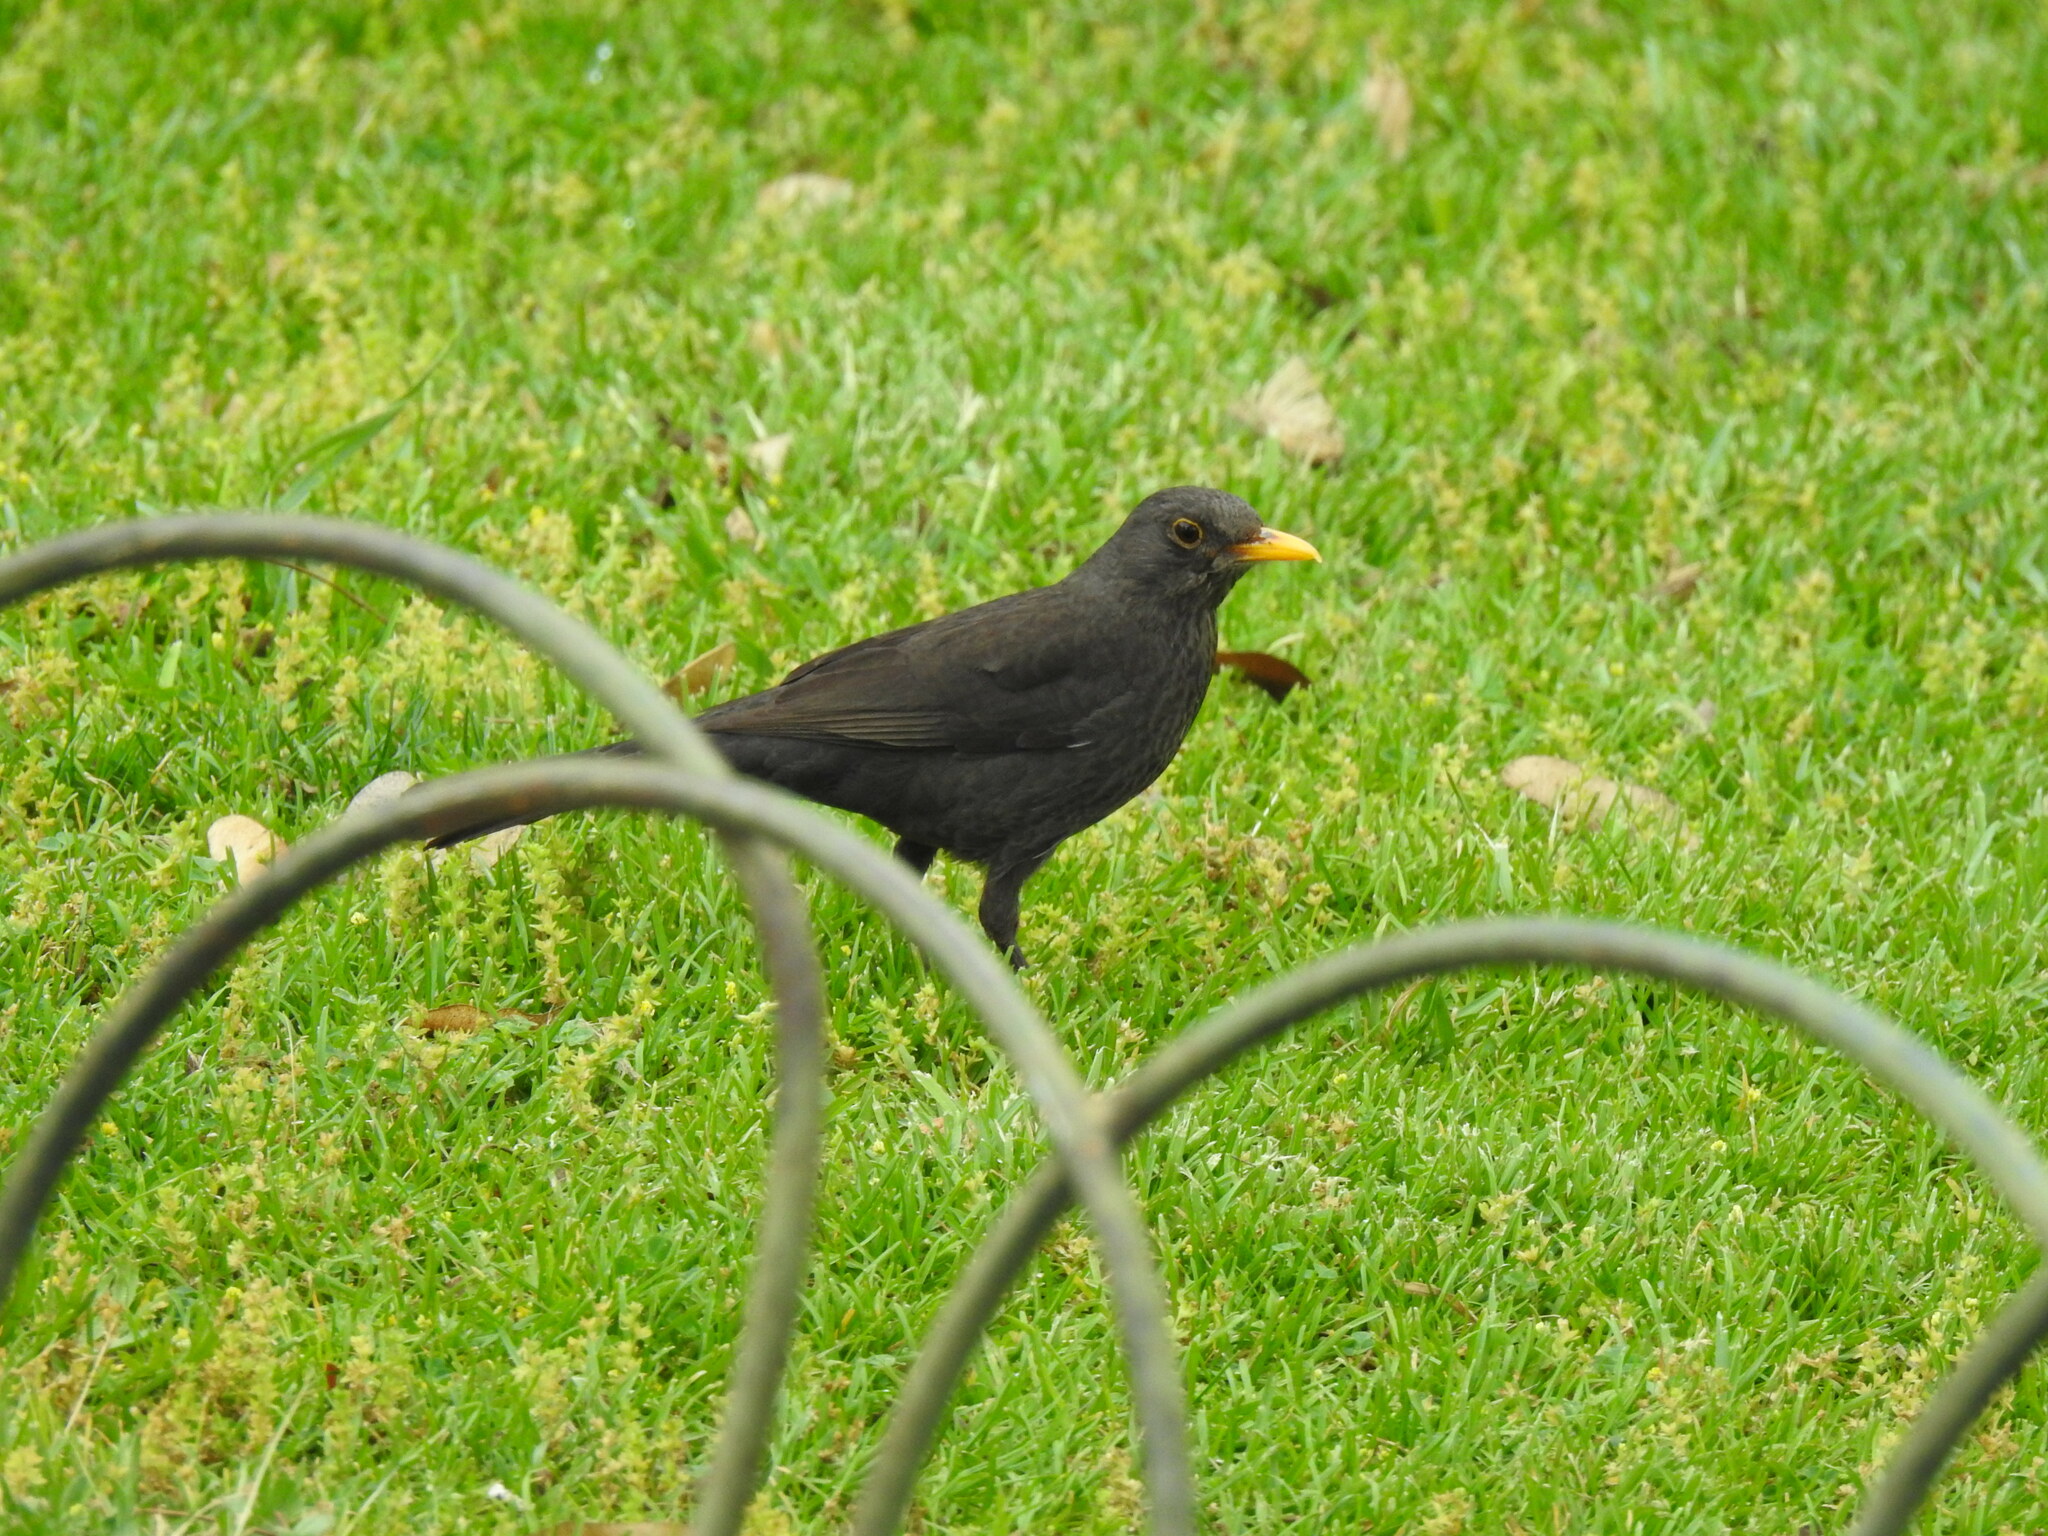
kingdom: Animalia
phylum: Chordata
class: Aves
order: Passeriformes
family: Turdidae
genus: Turdus
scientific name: Turdus merula
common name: Common blackbird
